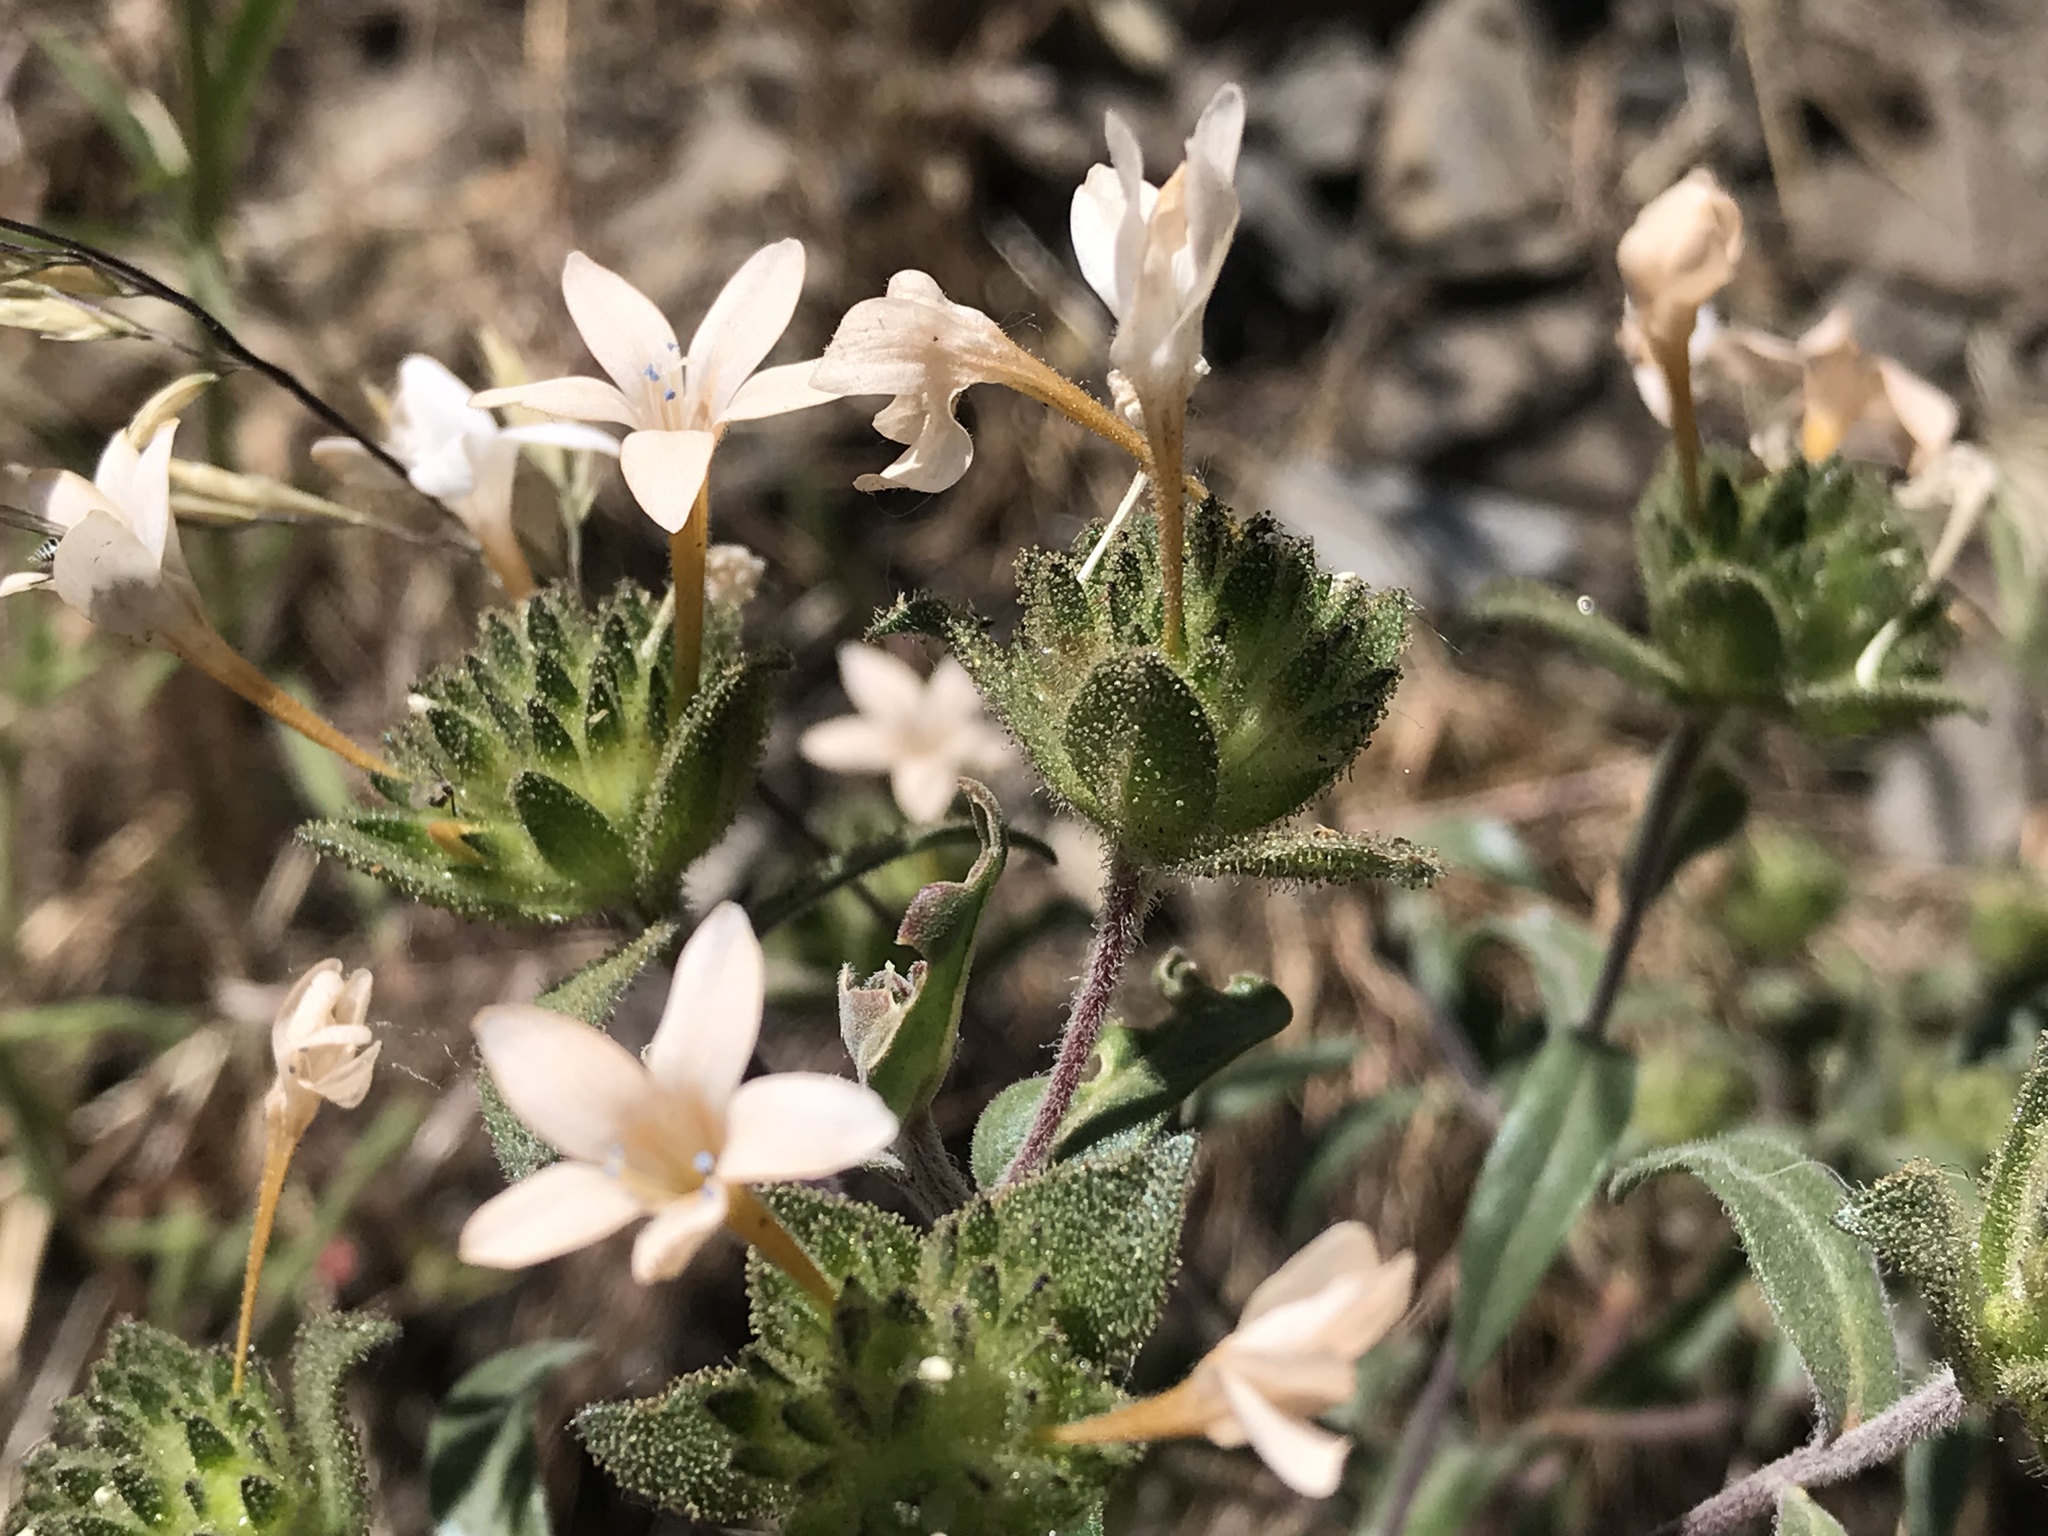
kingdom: Plantae
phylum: Tracheophyta
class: Magnoliopsida
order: Ericales
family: Polemoniaceae
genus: Collomia
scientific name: Collomia grandiflora
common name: California strawflower
